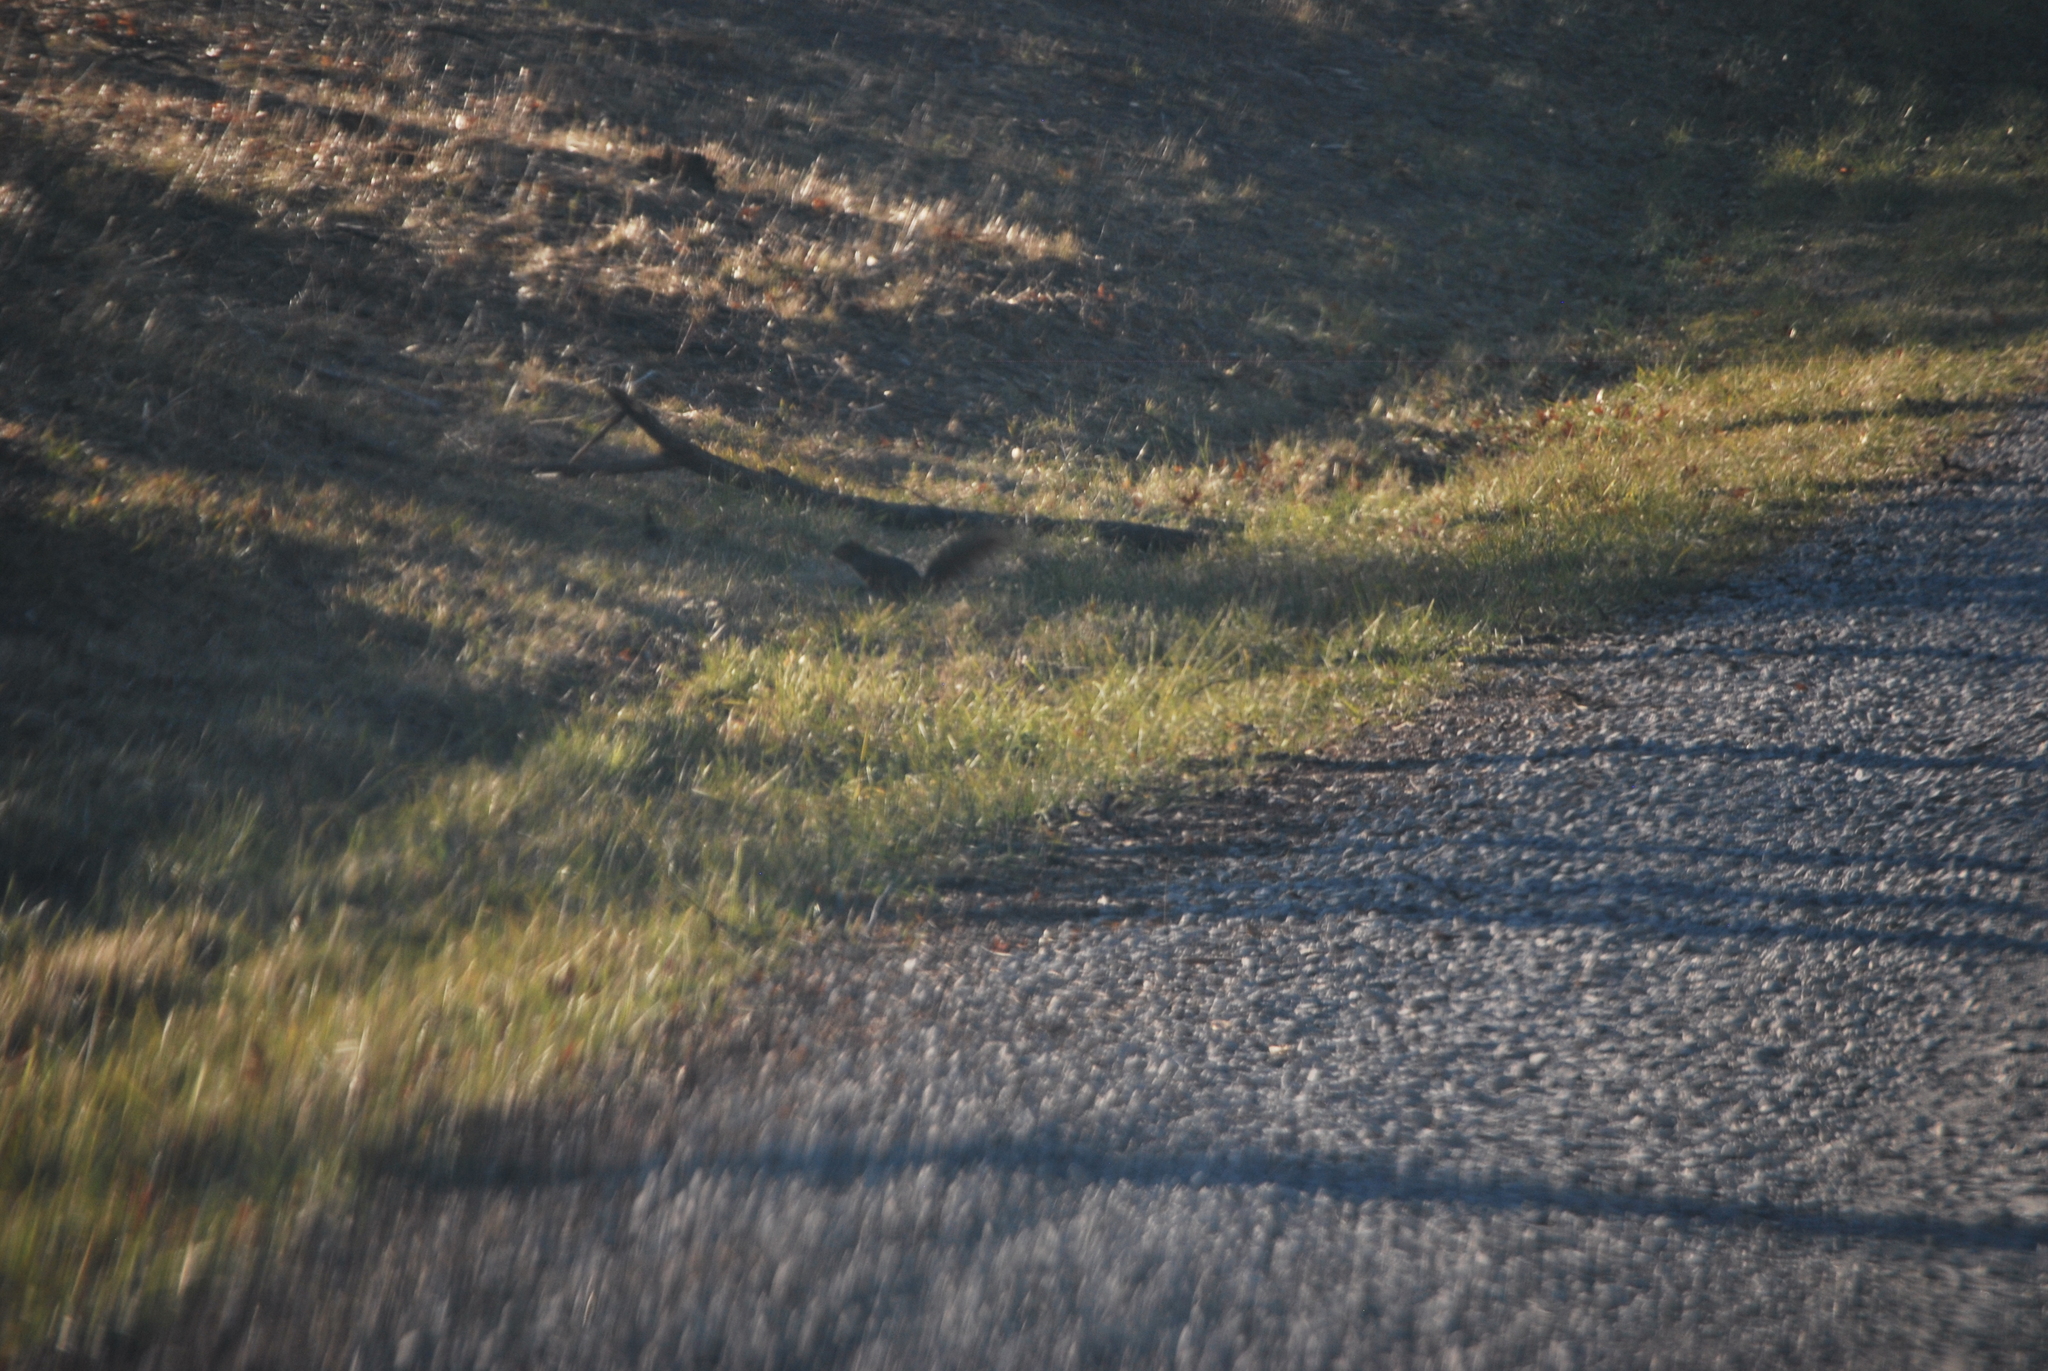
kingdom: Animalia
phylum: Chordata
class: Mammalia
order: Rodentia
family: Sciuridae
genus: Sciurus
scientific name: Sciurus niger
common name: Fox squirrel
